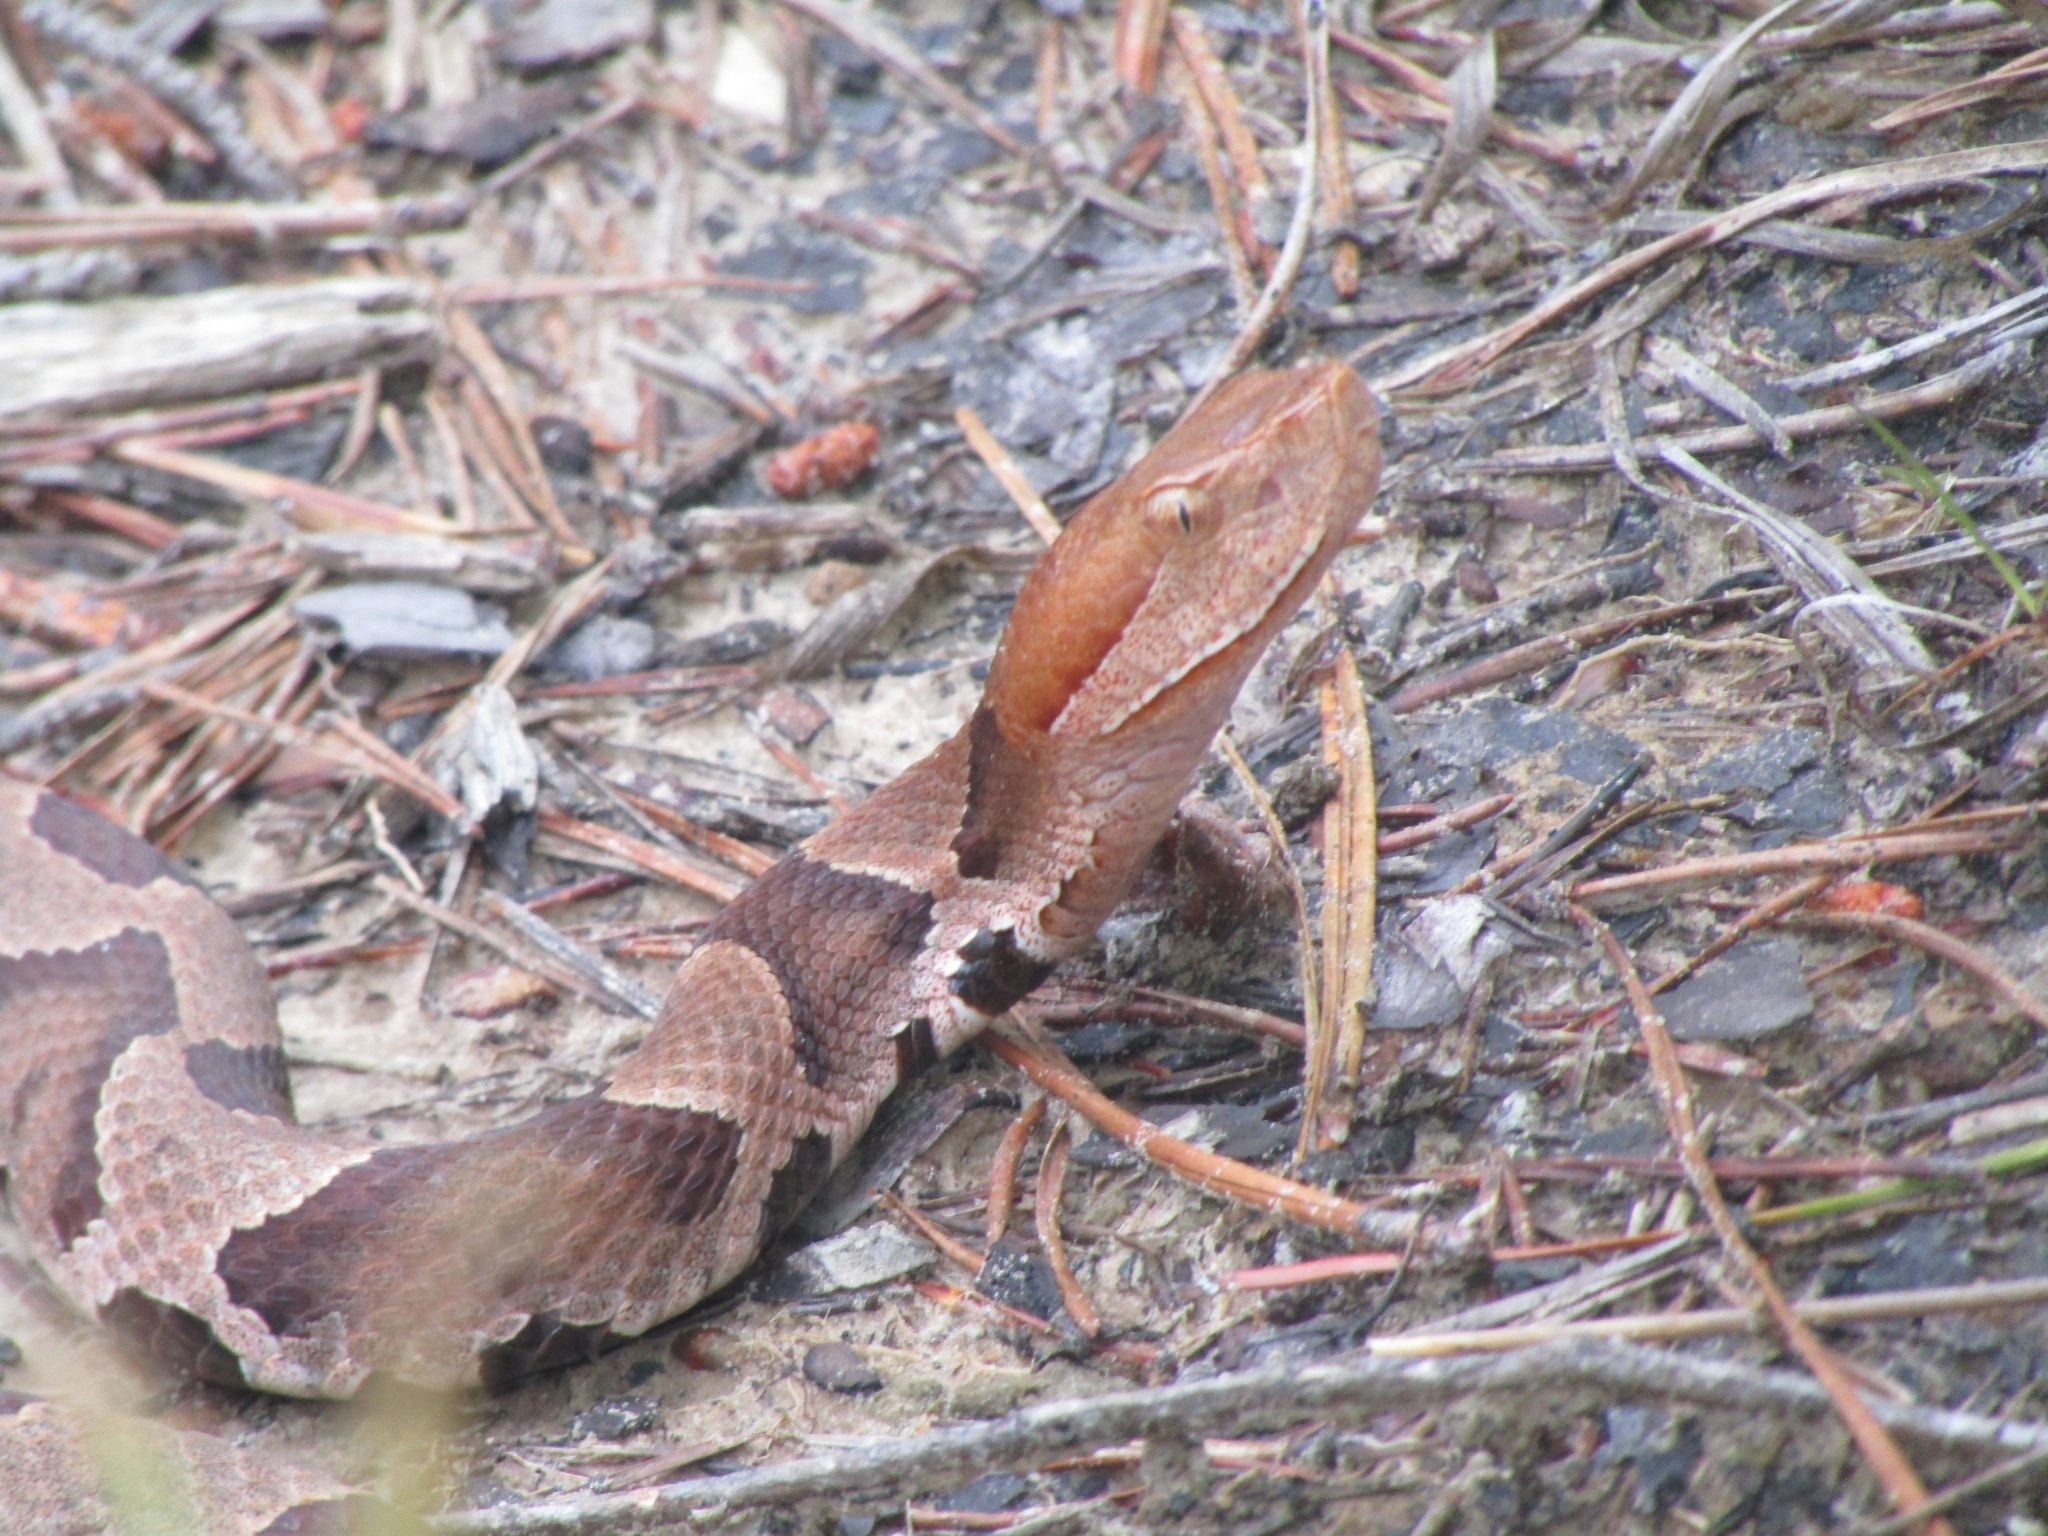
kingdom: Animalia
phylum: Chordata
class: Squamata
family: Viperidae
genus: Agkistrodon
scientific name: Agkistrodon contortrix
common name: Northern copperhead
